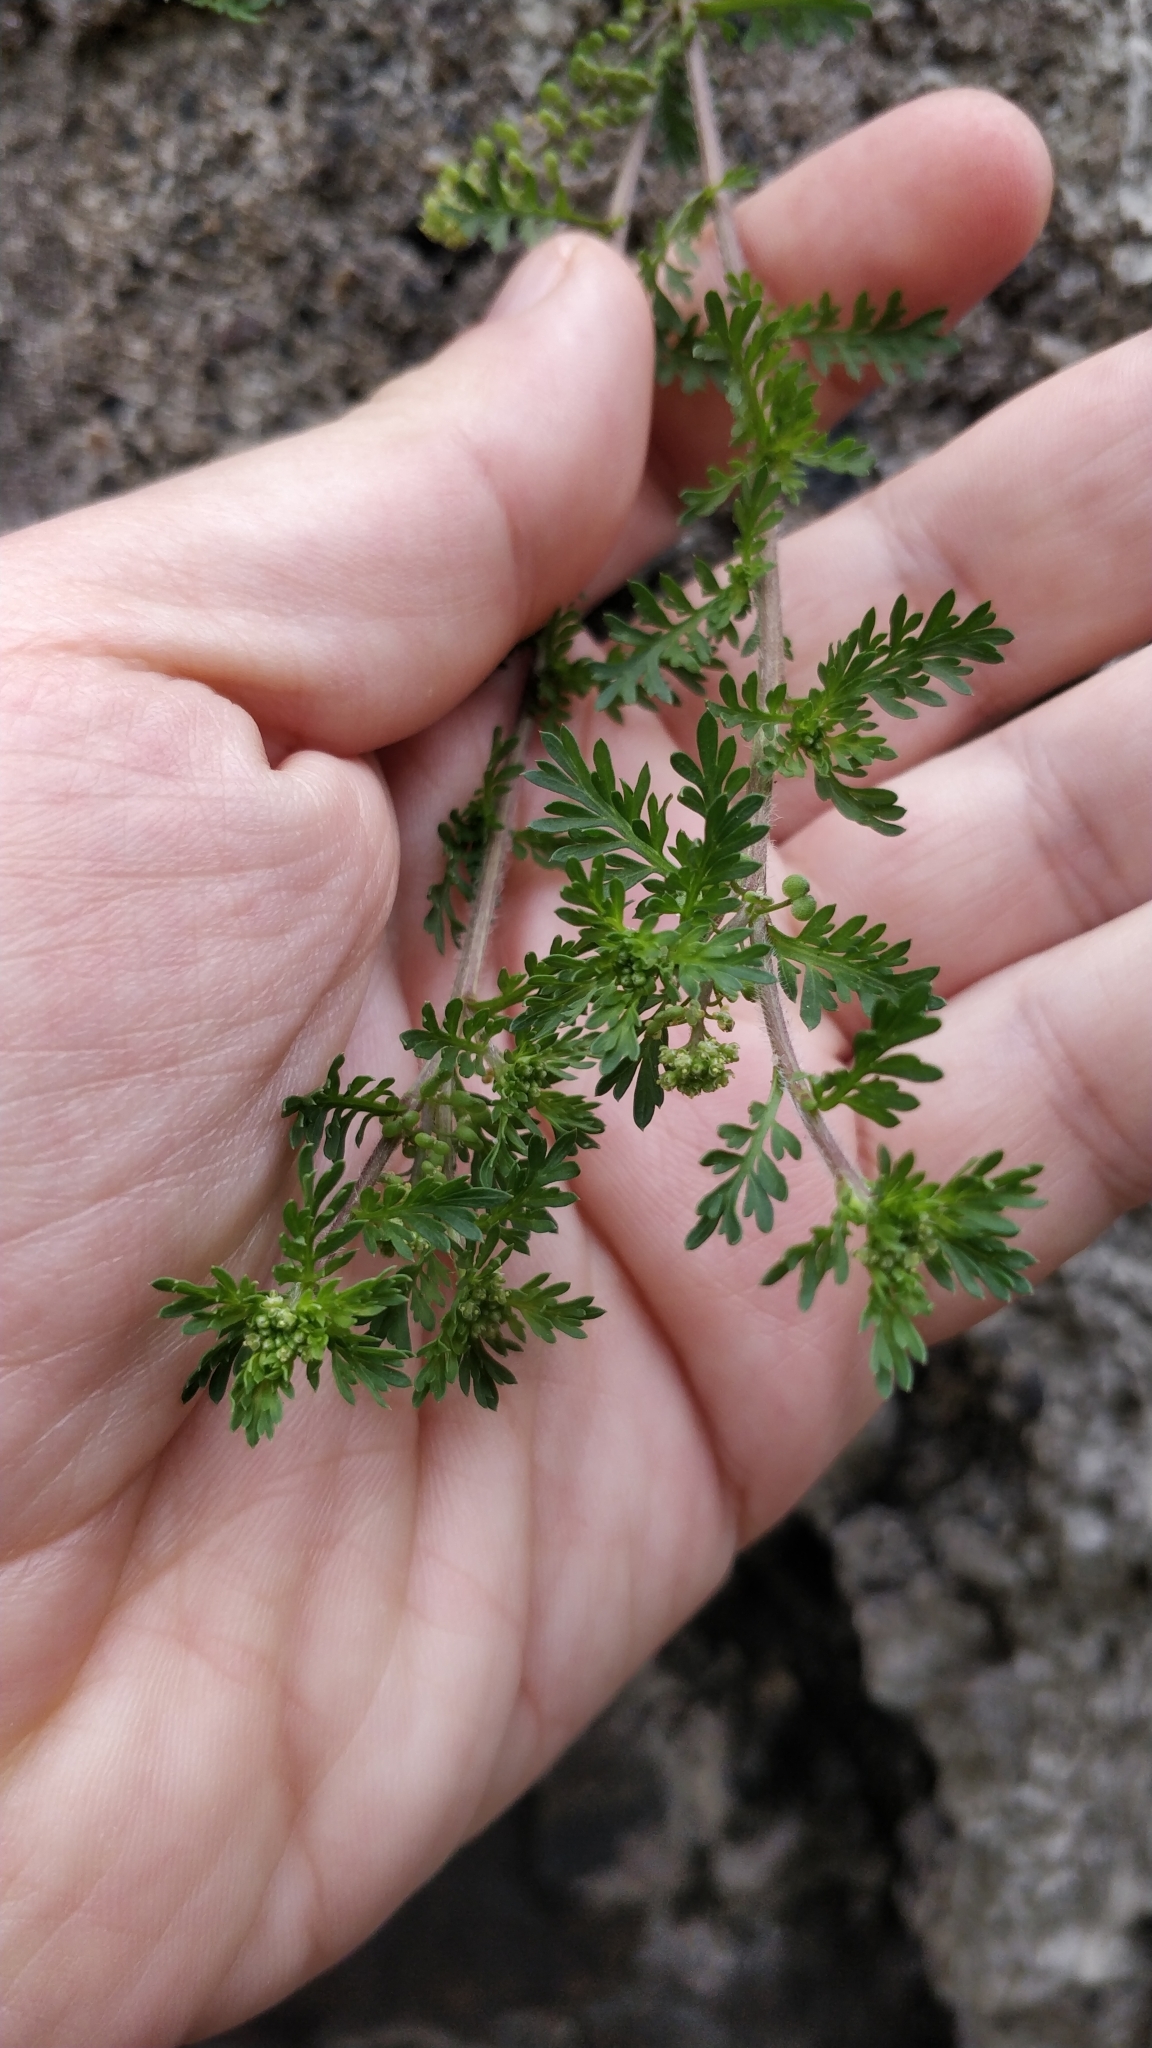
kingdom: Plantae
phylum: Tracheophyta
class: Magnoliopsida
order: Brassicales
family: Brassicaceae
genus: Lepidium
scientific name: Lepidium didymum
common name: Lesser swinecress
